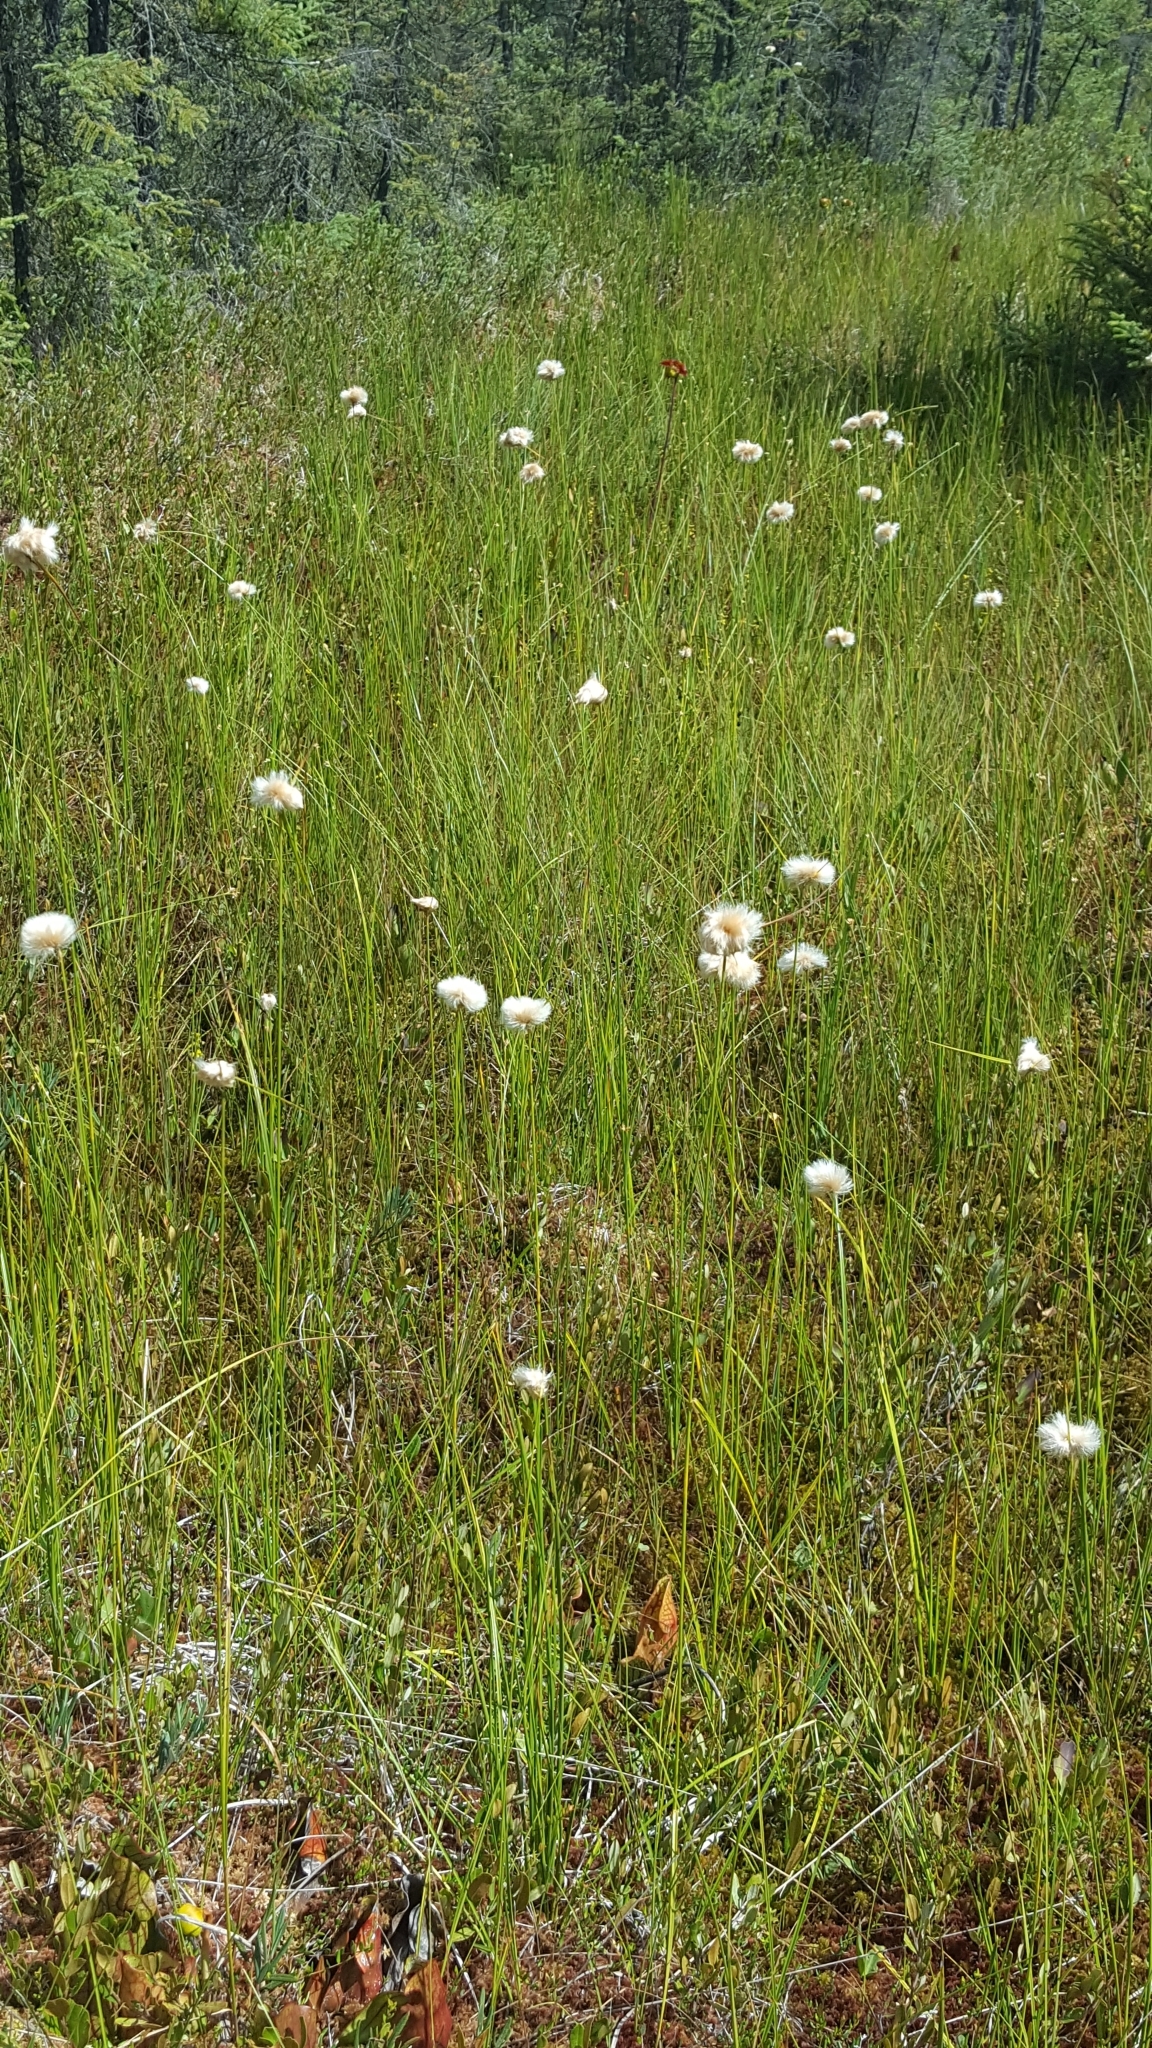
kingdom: Plantae
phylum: Tracheophyta
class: Liliopsida
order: Poales
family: Cyperaceae
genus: Eriophorum
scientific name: Eriophorum virginicum
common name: Tawny cottongrass
